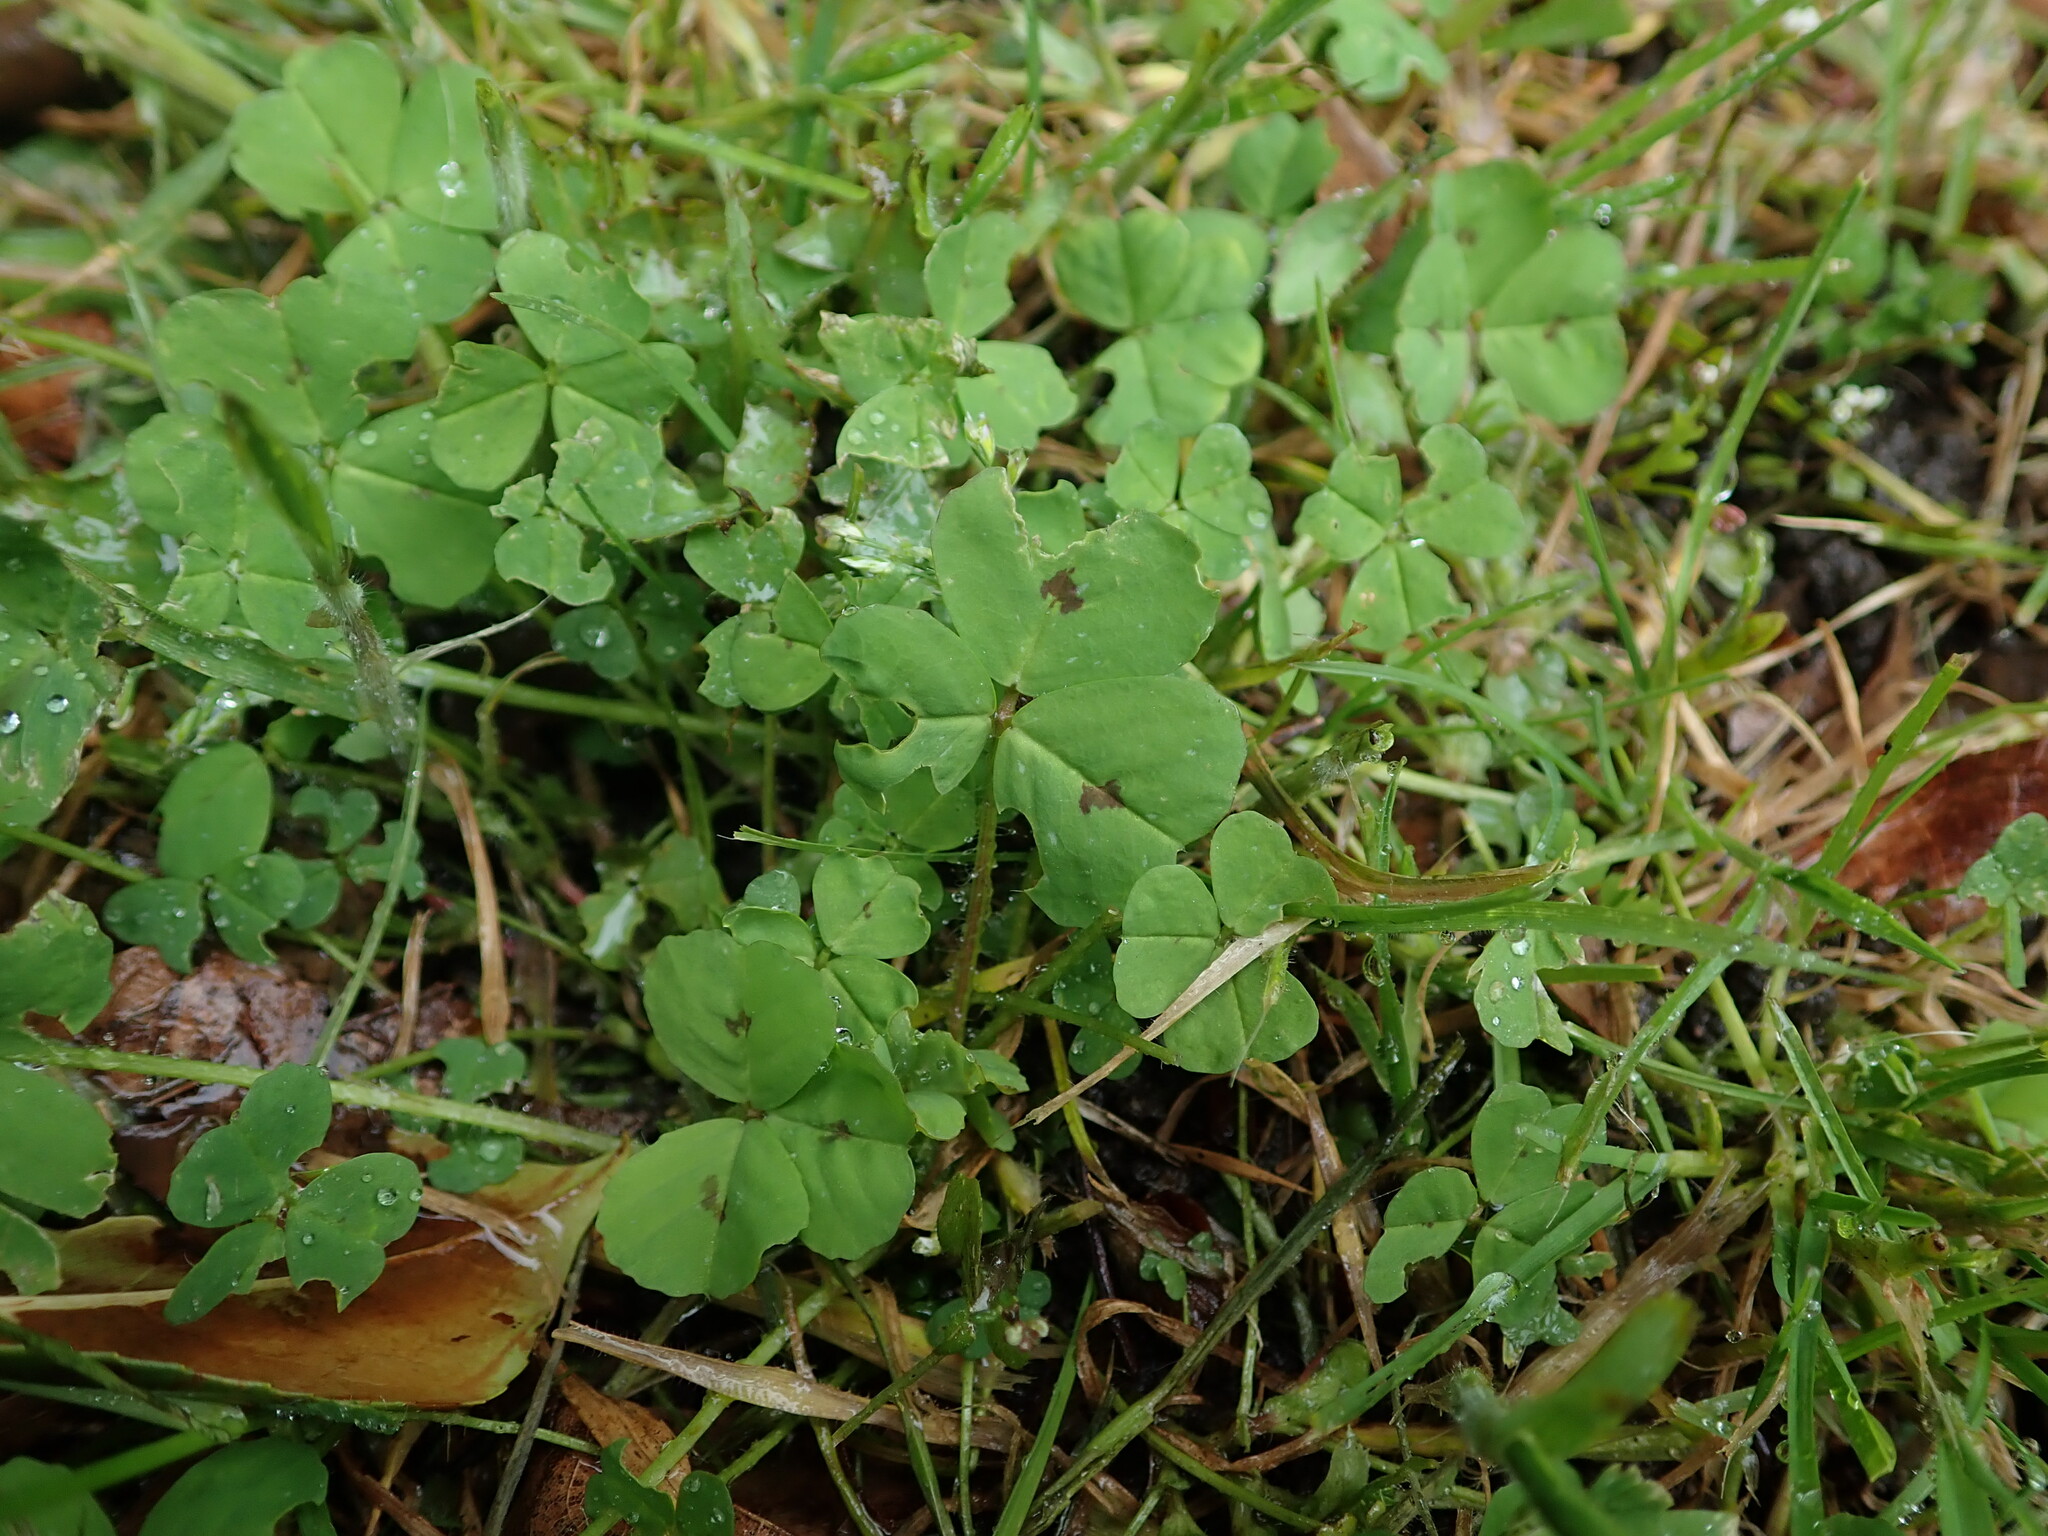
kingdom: Plantae
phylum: Tracheophyta
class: Magnoliopsida
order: Fabales
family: Fabaceae
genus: Medicago
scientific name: Medicago arabica
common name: Spotted medick
